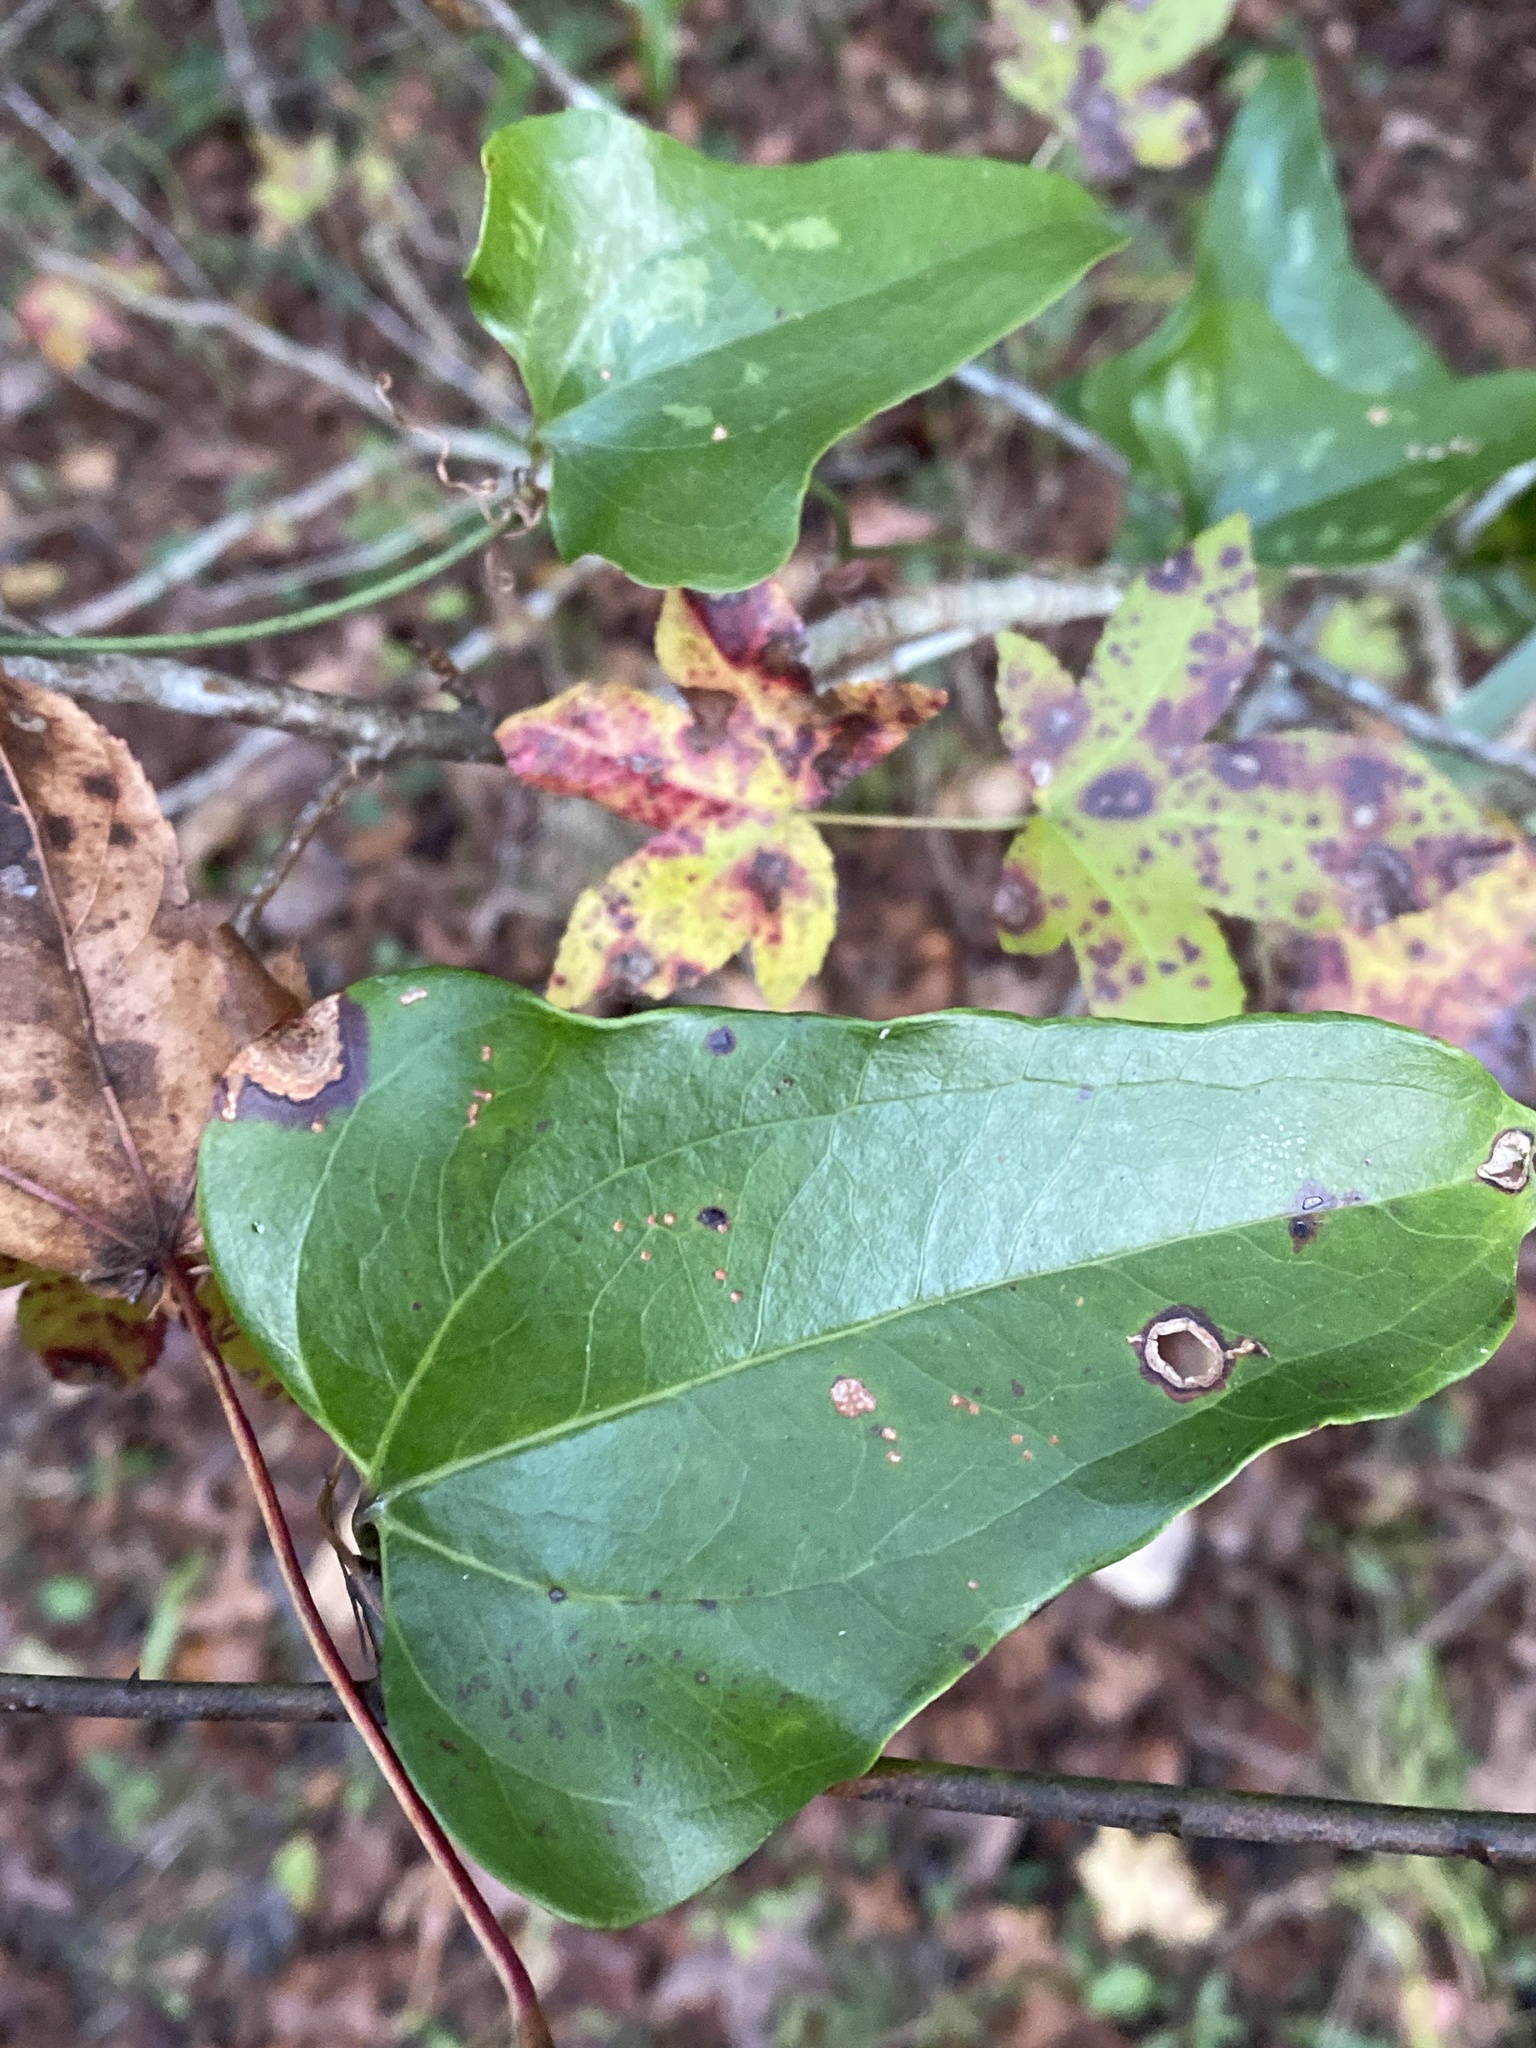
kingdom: Plantae
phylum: Tracheophyta
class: Liliopsida
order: Liliales
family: Smilacaceae
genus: Smilax
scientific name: Smilax glauca
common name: Cat greenbrier
